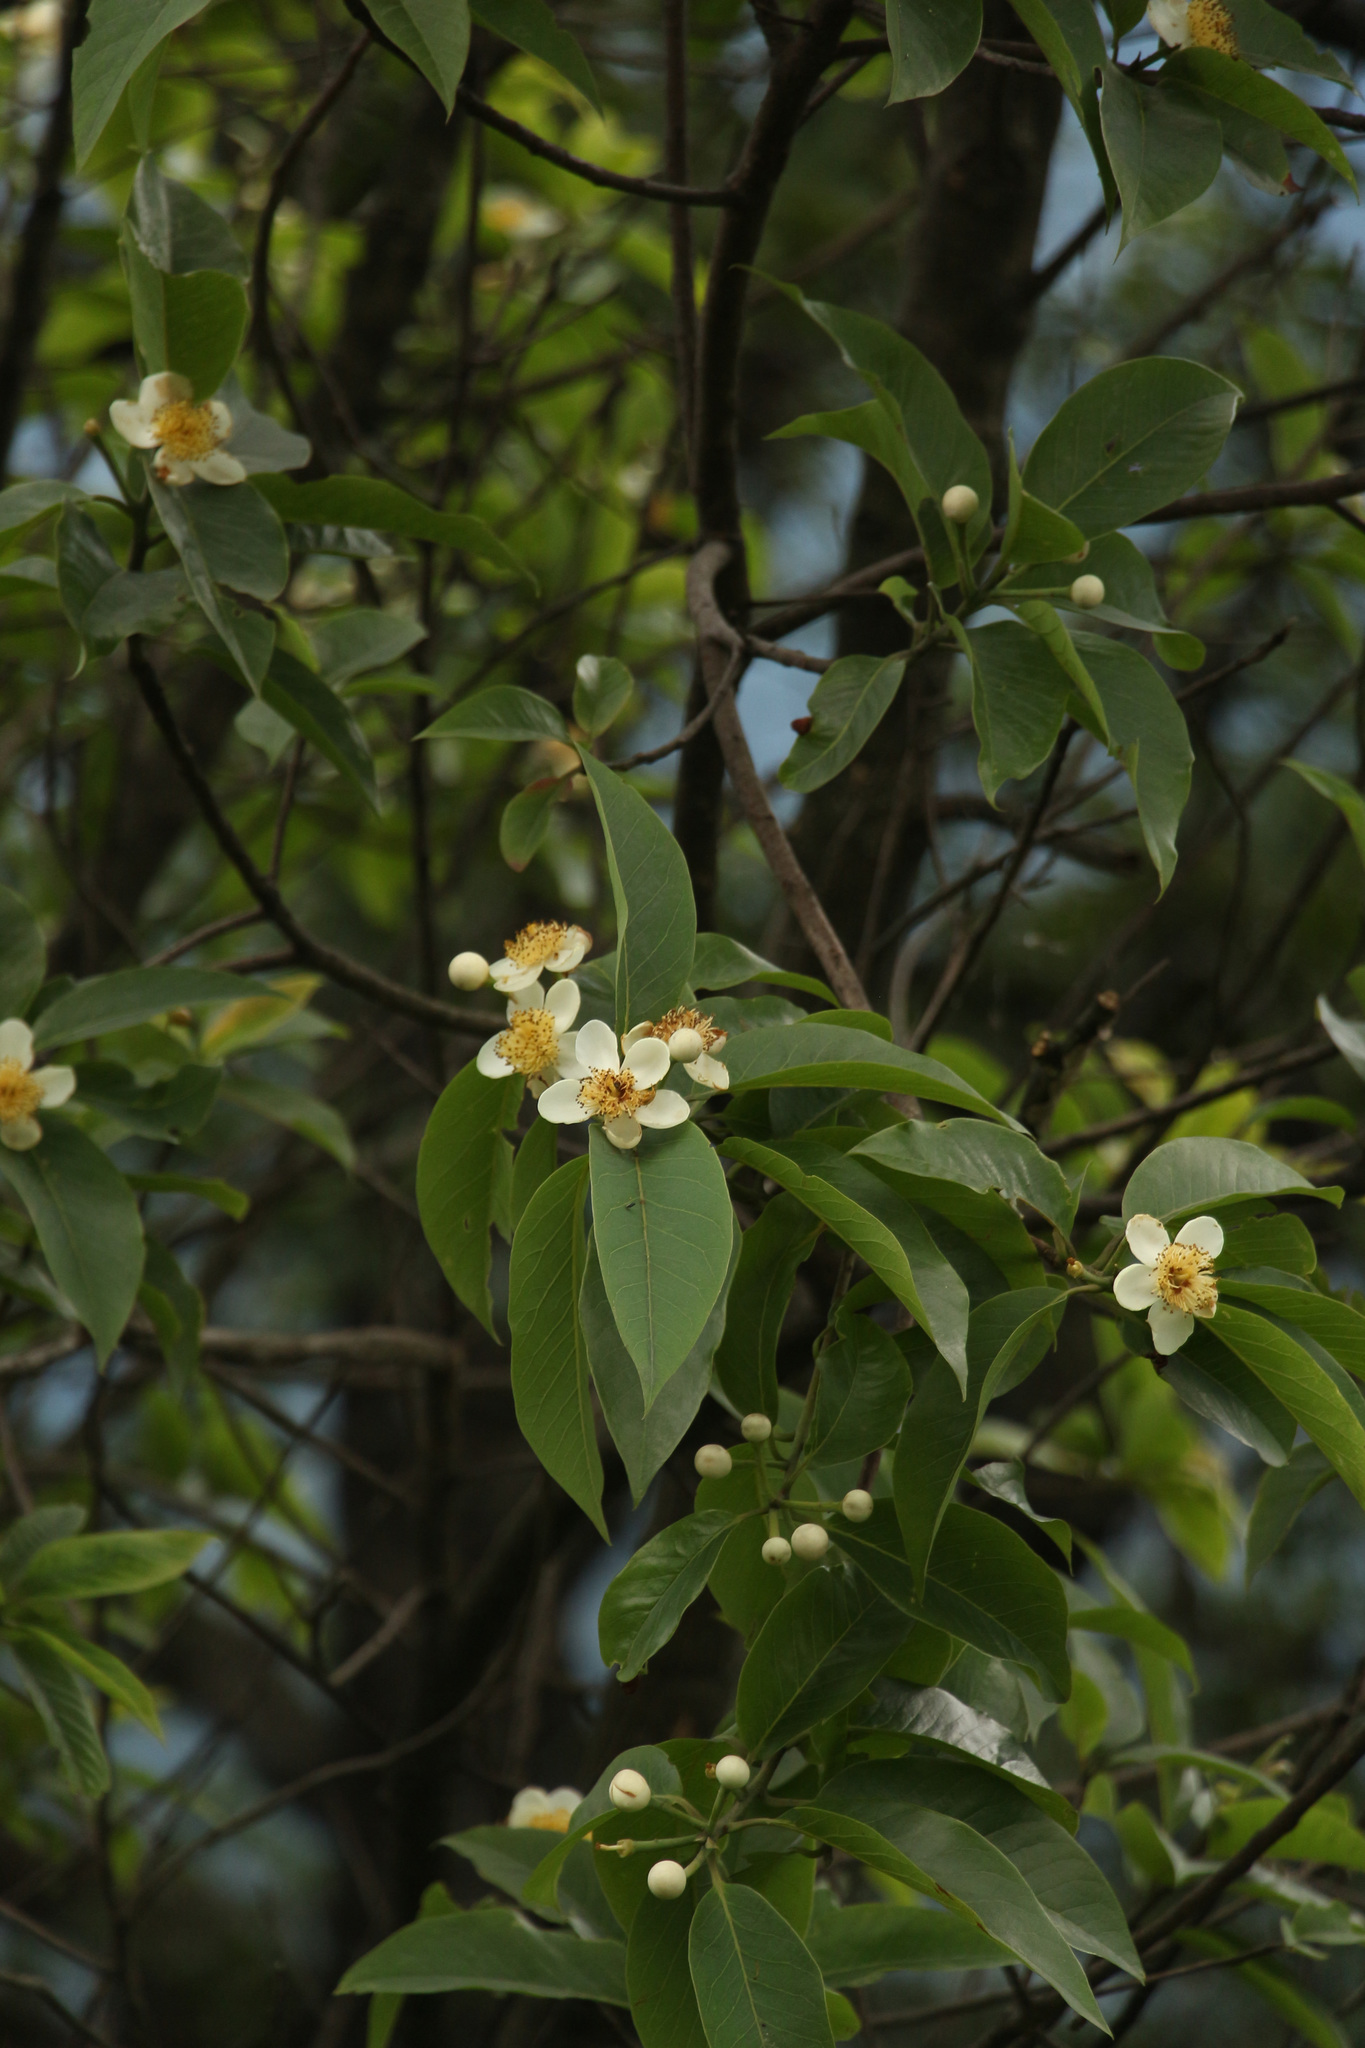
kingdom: Plantae
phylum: Tracheophyta
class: Magnoliopsida
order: Ericales
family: Theaceae
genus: Schima
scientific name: Schima wallichii
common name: Schima
